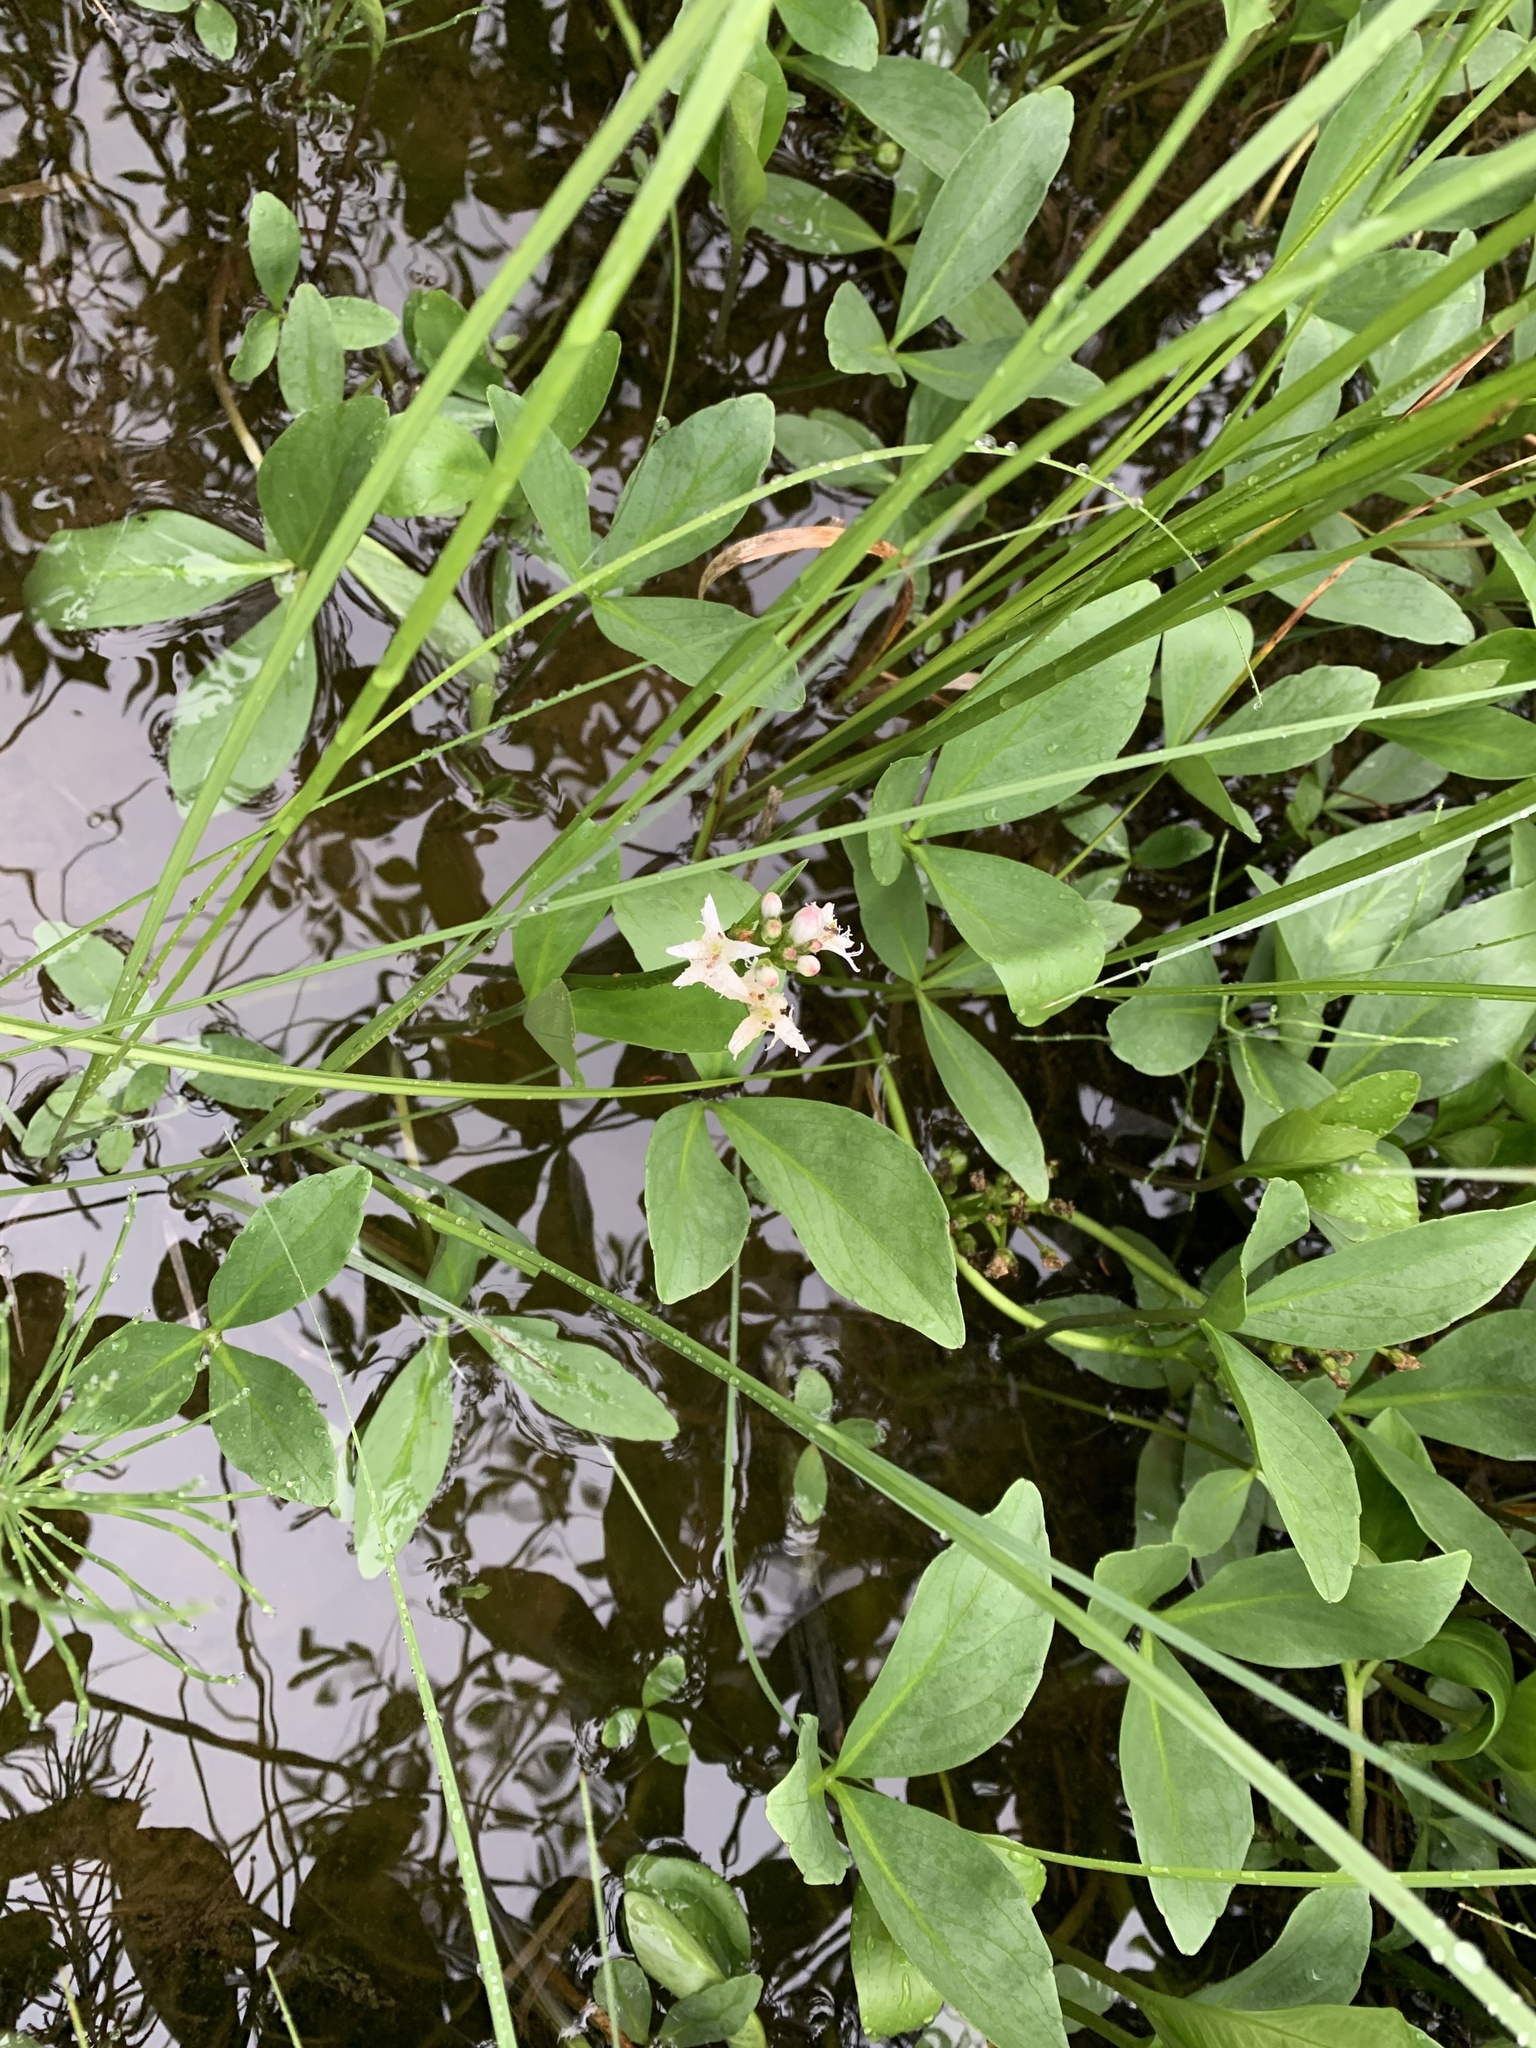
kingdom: Plantae
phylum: Tracheophyta
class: Magnoliopsida
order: Asterales
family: Menyanthaceae
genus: Menyanthes
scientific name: Menyanthes trifoliata
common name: Bogbean
